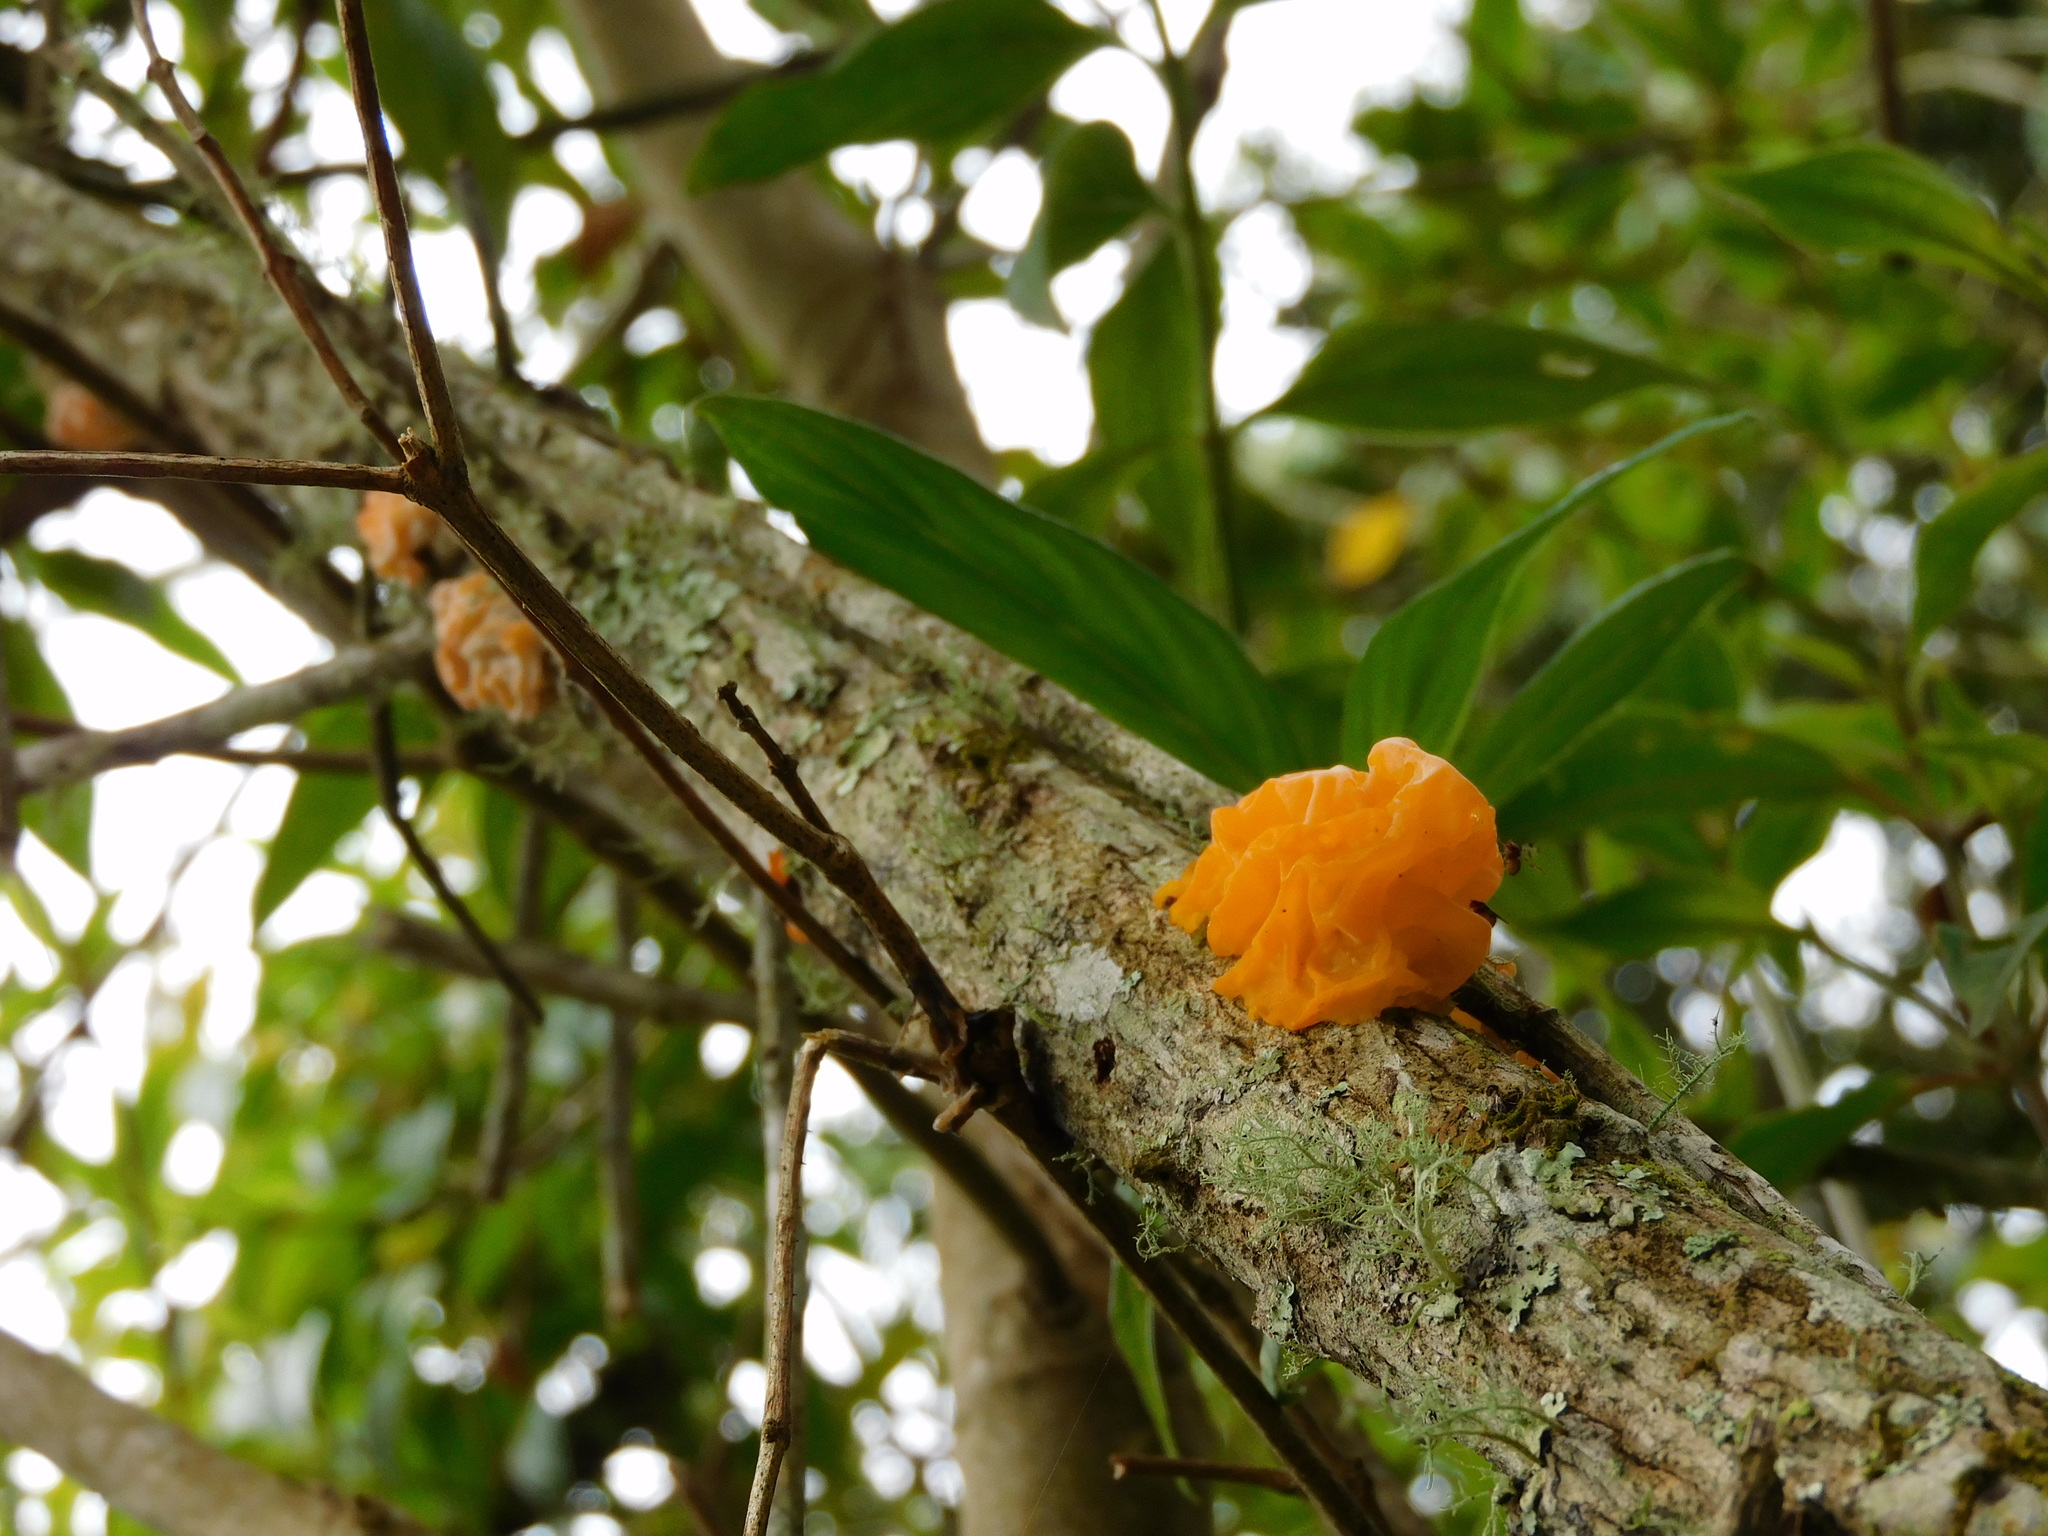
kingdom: Fungi
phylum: Basidiomycota
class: Tremellomycetes
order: Tremellales
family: Tremellaceae
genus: Tremella
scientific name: Tremella mesenterica
